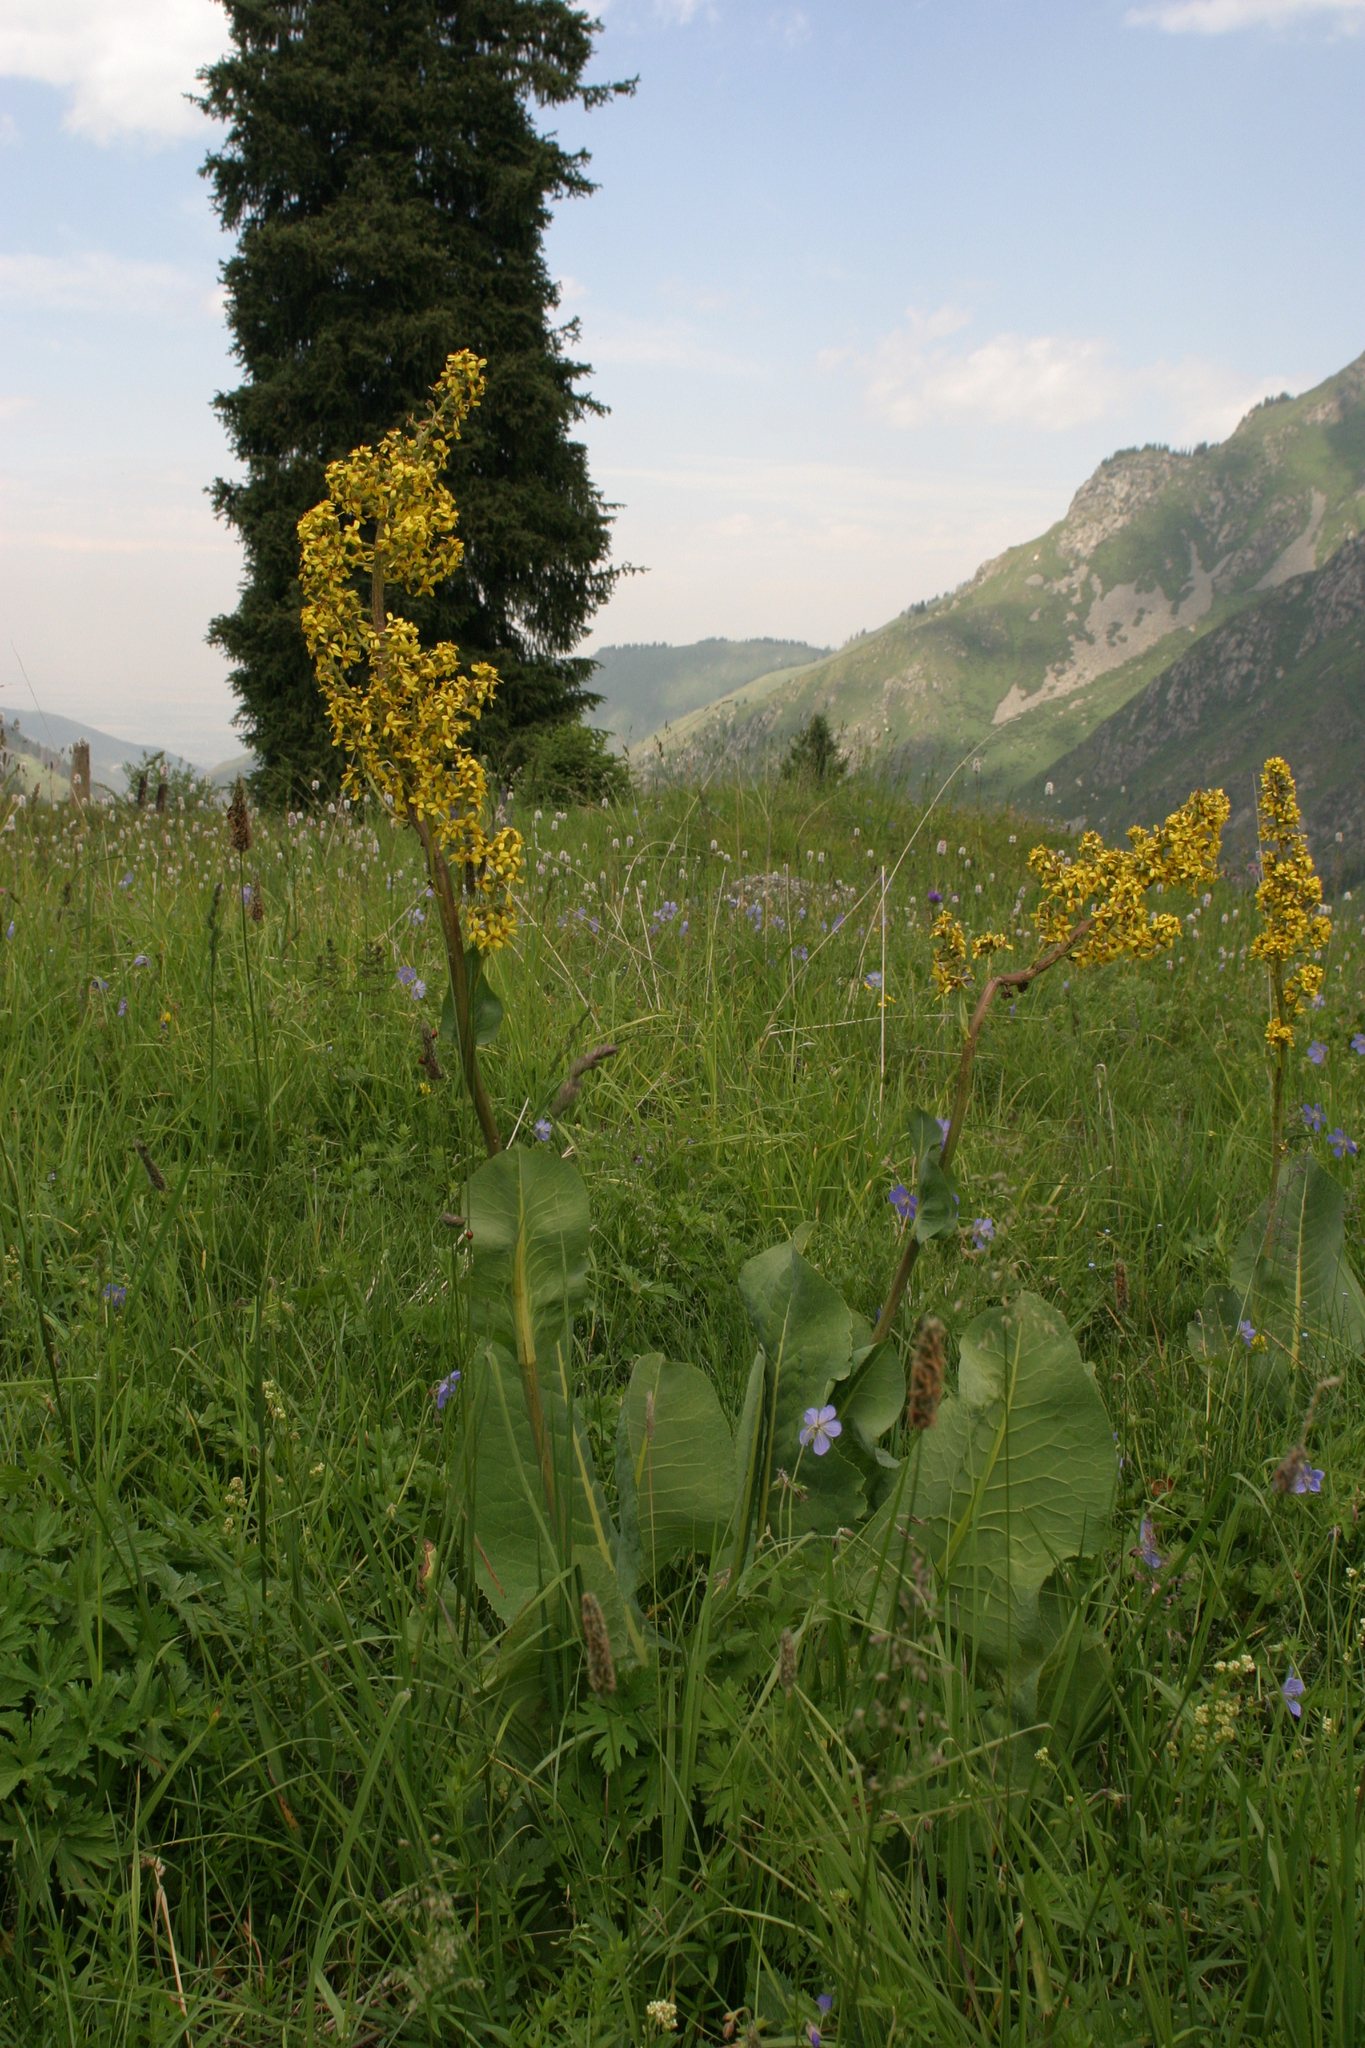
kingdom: Plantae
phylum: Tracheophyta
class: Pinopsida
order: Pinales
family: Pinaceae
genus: Picea
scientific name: Picea schrenkiana
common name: Asian spruce
